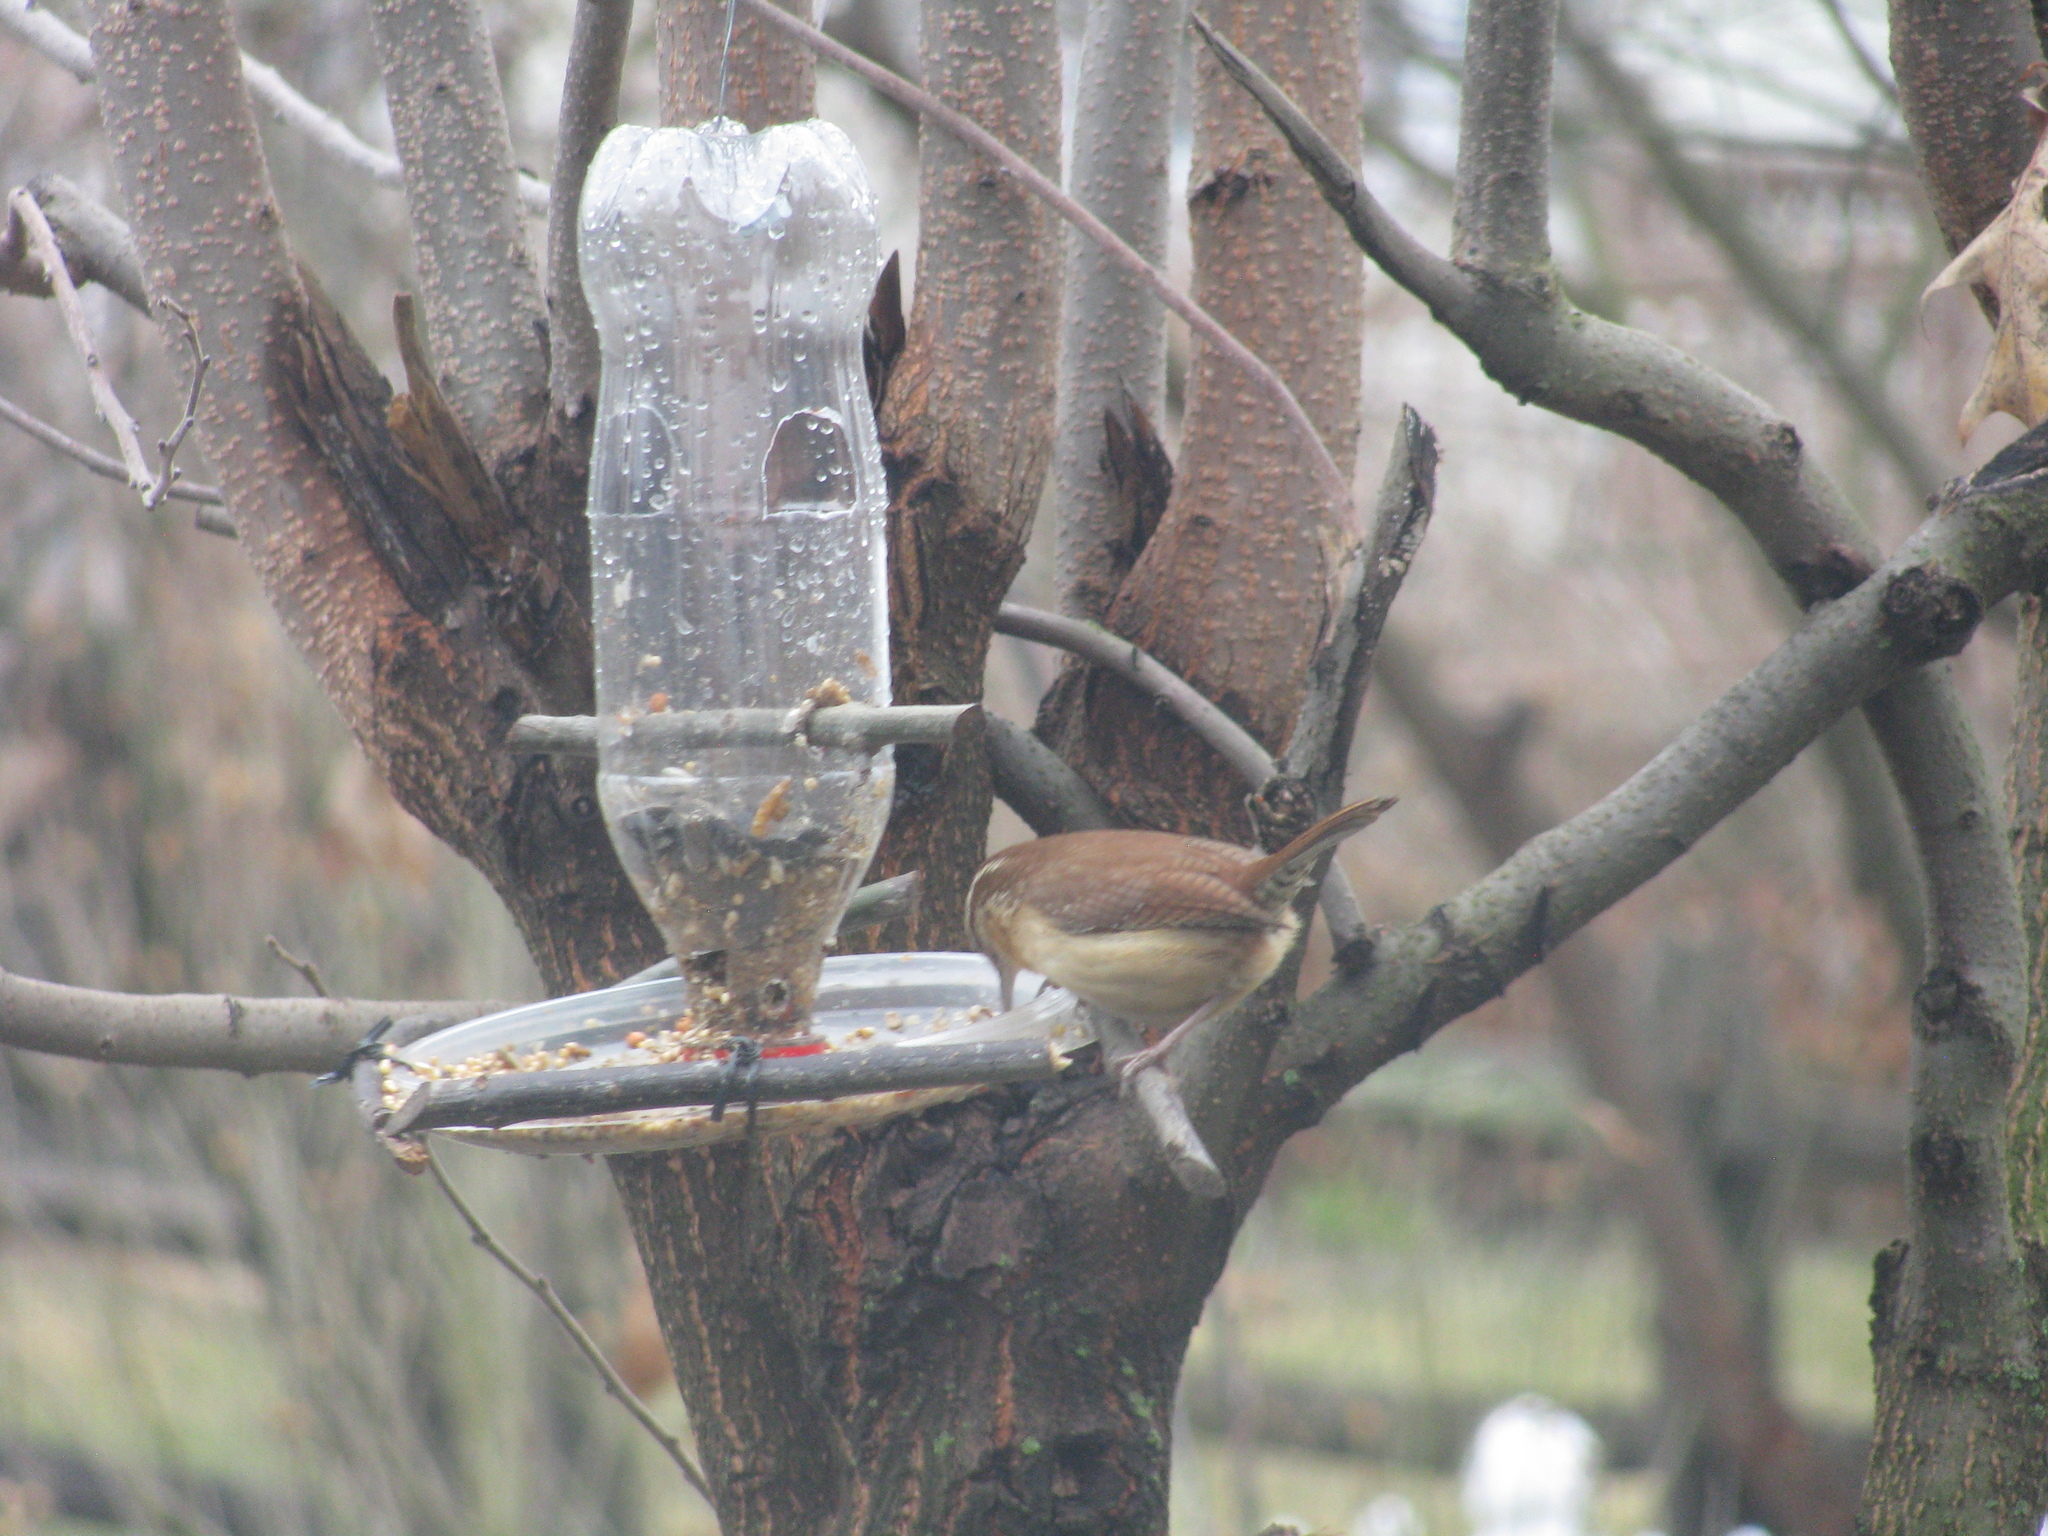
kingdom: Animalia
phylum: Chordata
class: Aves
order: Passeriformes
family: Troglodytidae
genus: Thryothorus
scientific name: Thryothorus ludovicianus
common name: Carolina wren
